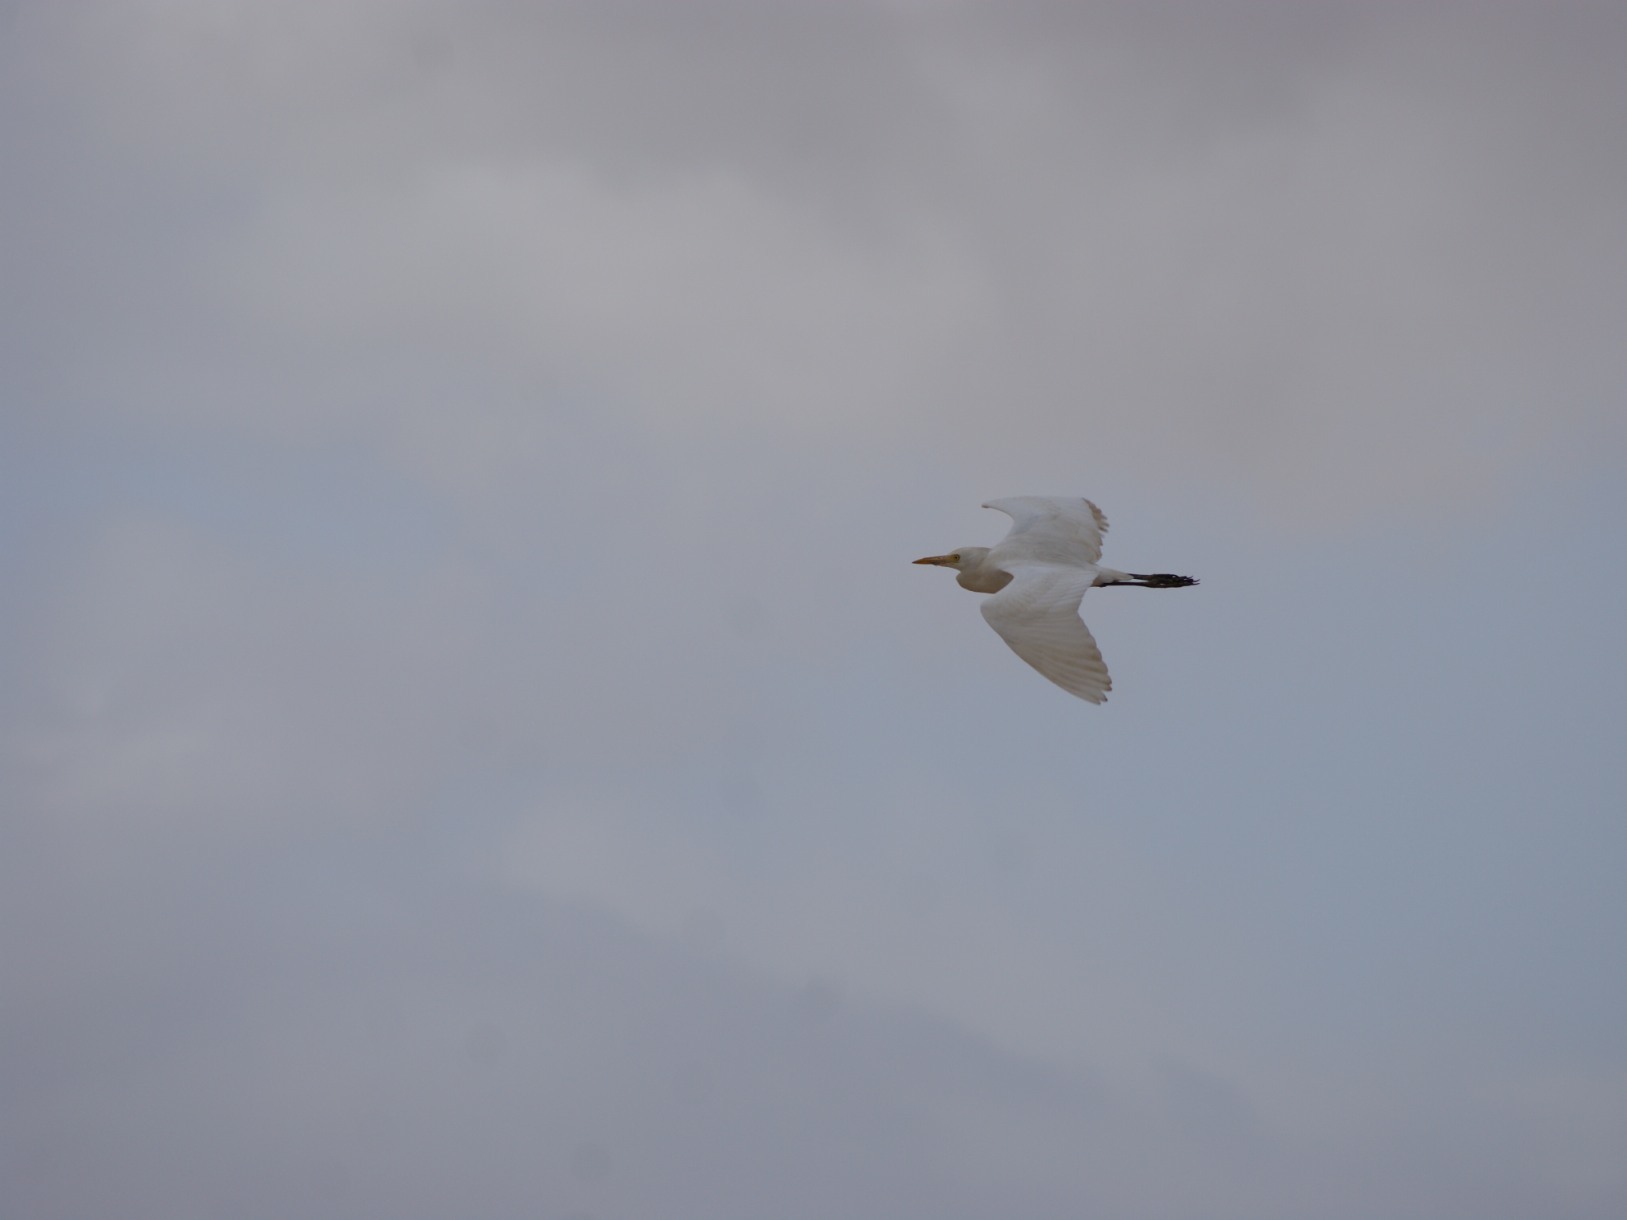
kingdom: Animalia
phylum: Chordata
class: Aves
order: Pelecaniformes
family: Ardeidae
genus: Bubulcus
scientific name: Bubulcus ibis
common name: Cattle egret
